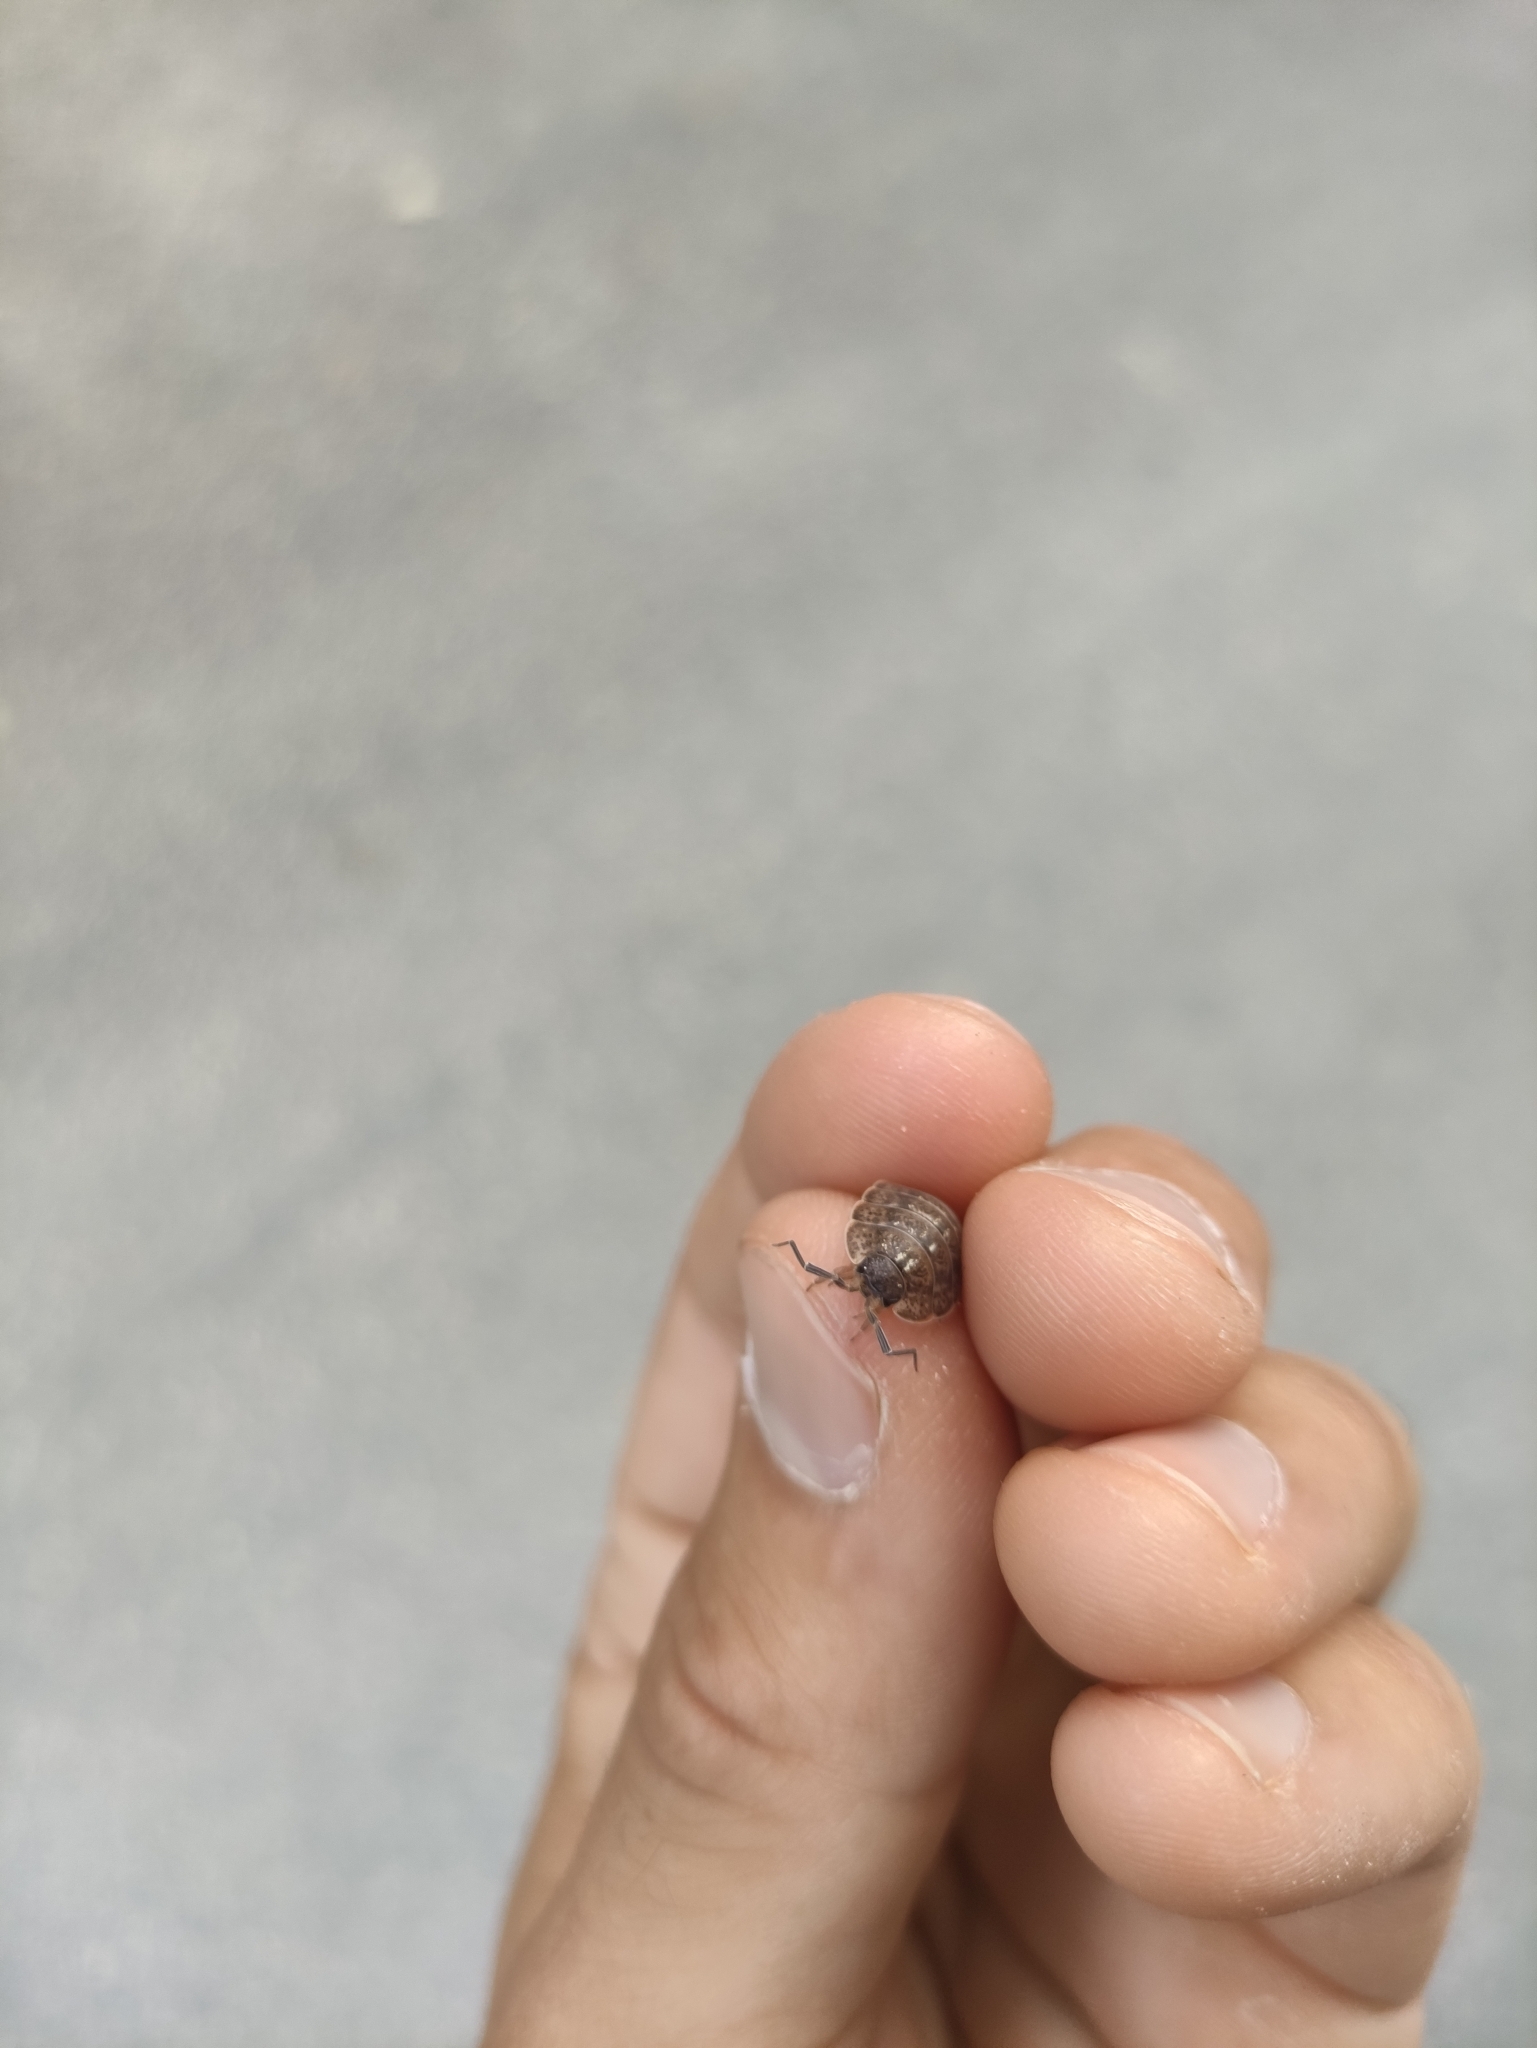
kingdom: Animalia
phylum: Arthropoda
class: Malacostraca
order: Isopoda
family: Porcellionidae
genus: Porcellio
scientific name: Porcellio monticola
